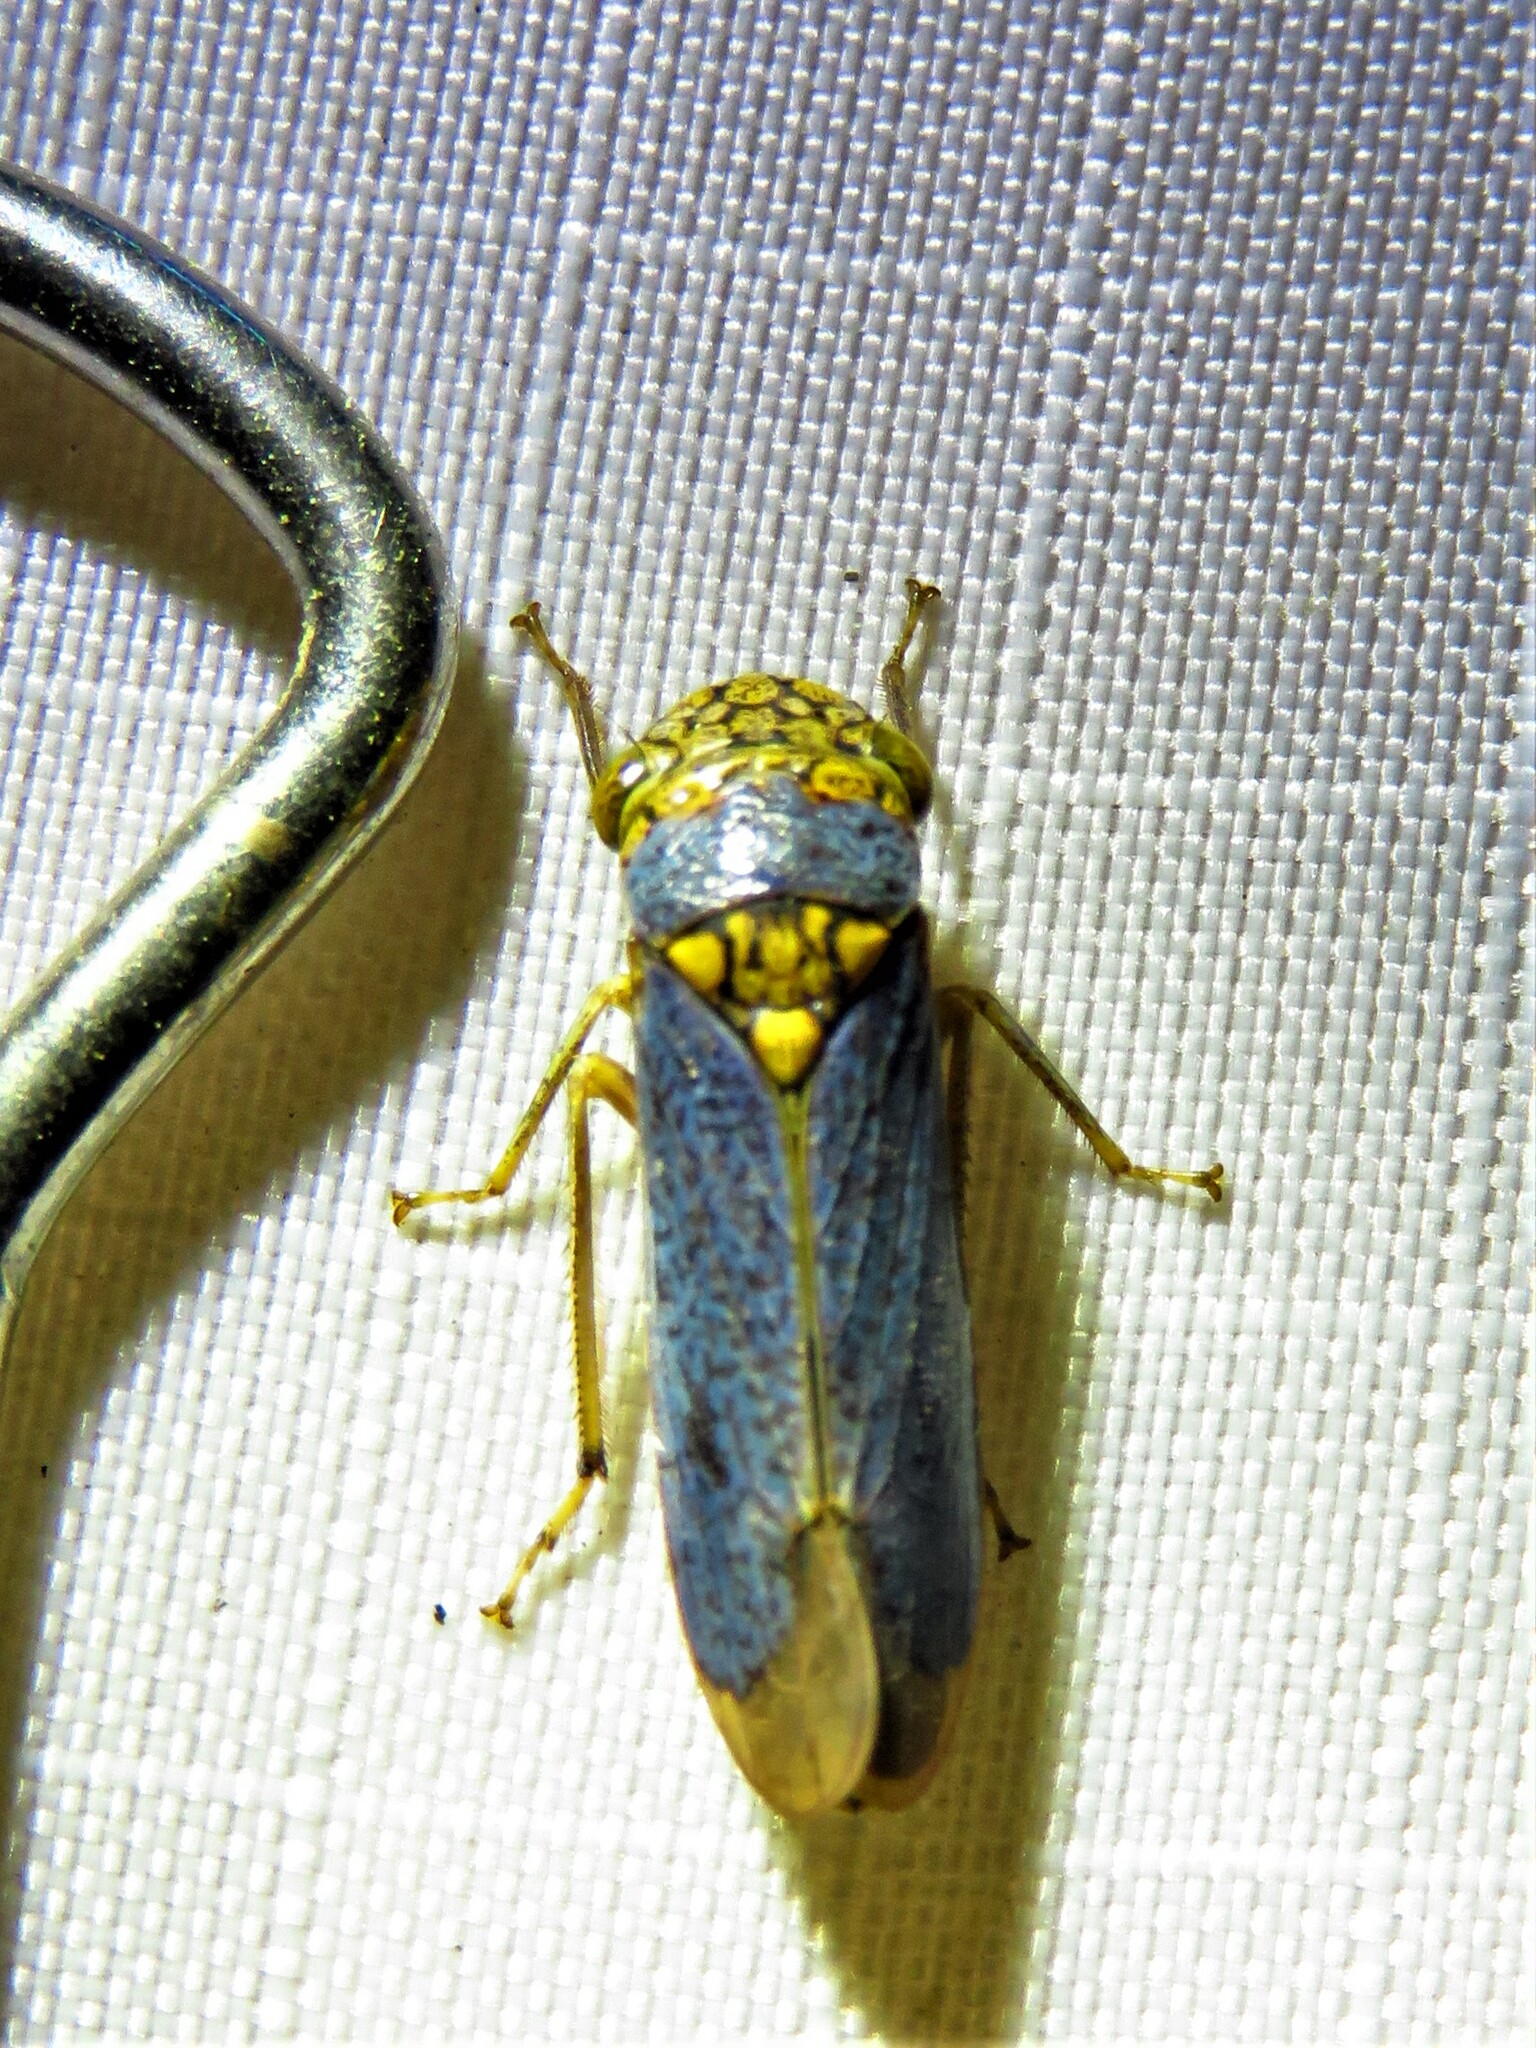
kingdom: Animalia
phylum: Arthropoda
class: Insecta
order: Hemiptera
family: Cicadellidae
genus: Oncometopia
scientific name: Oncometopia orbona
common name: Broad-headed sharpshooter
